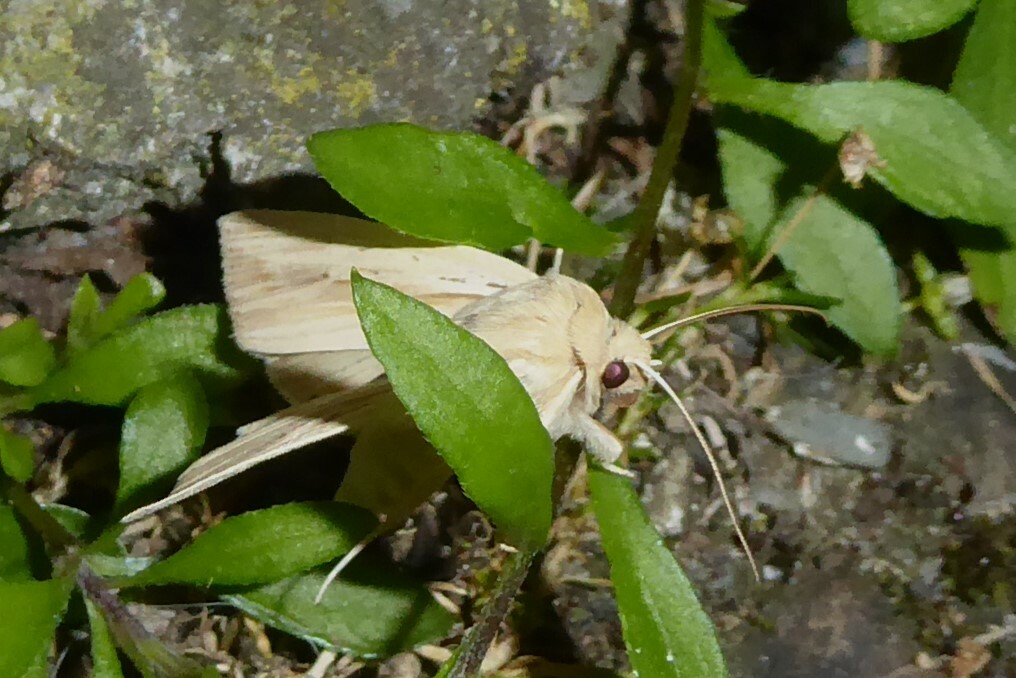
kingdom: Animalia
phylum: Arthropoda
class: Insecta
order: Lepidoptera
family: Noctuidae
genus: Ichneutica
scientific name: Ichneutica semivittata
